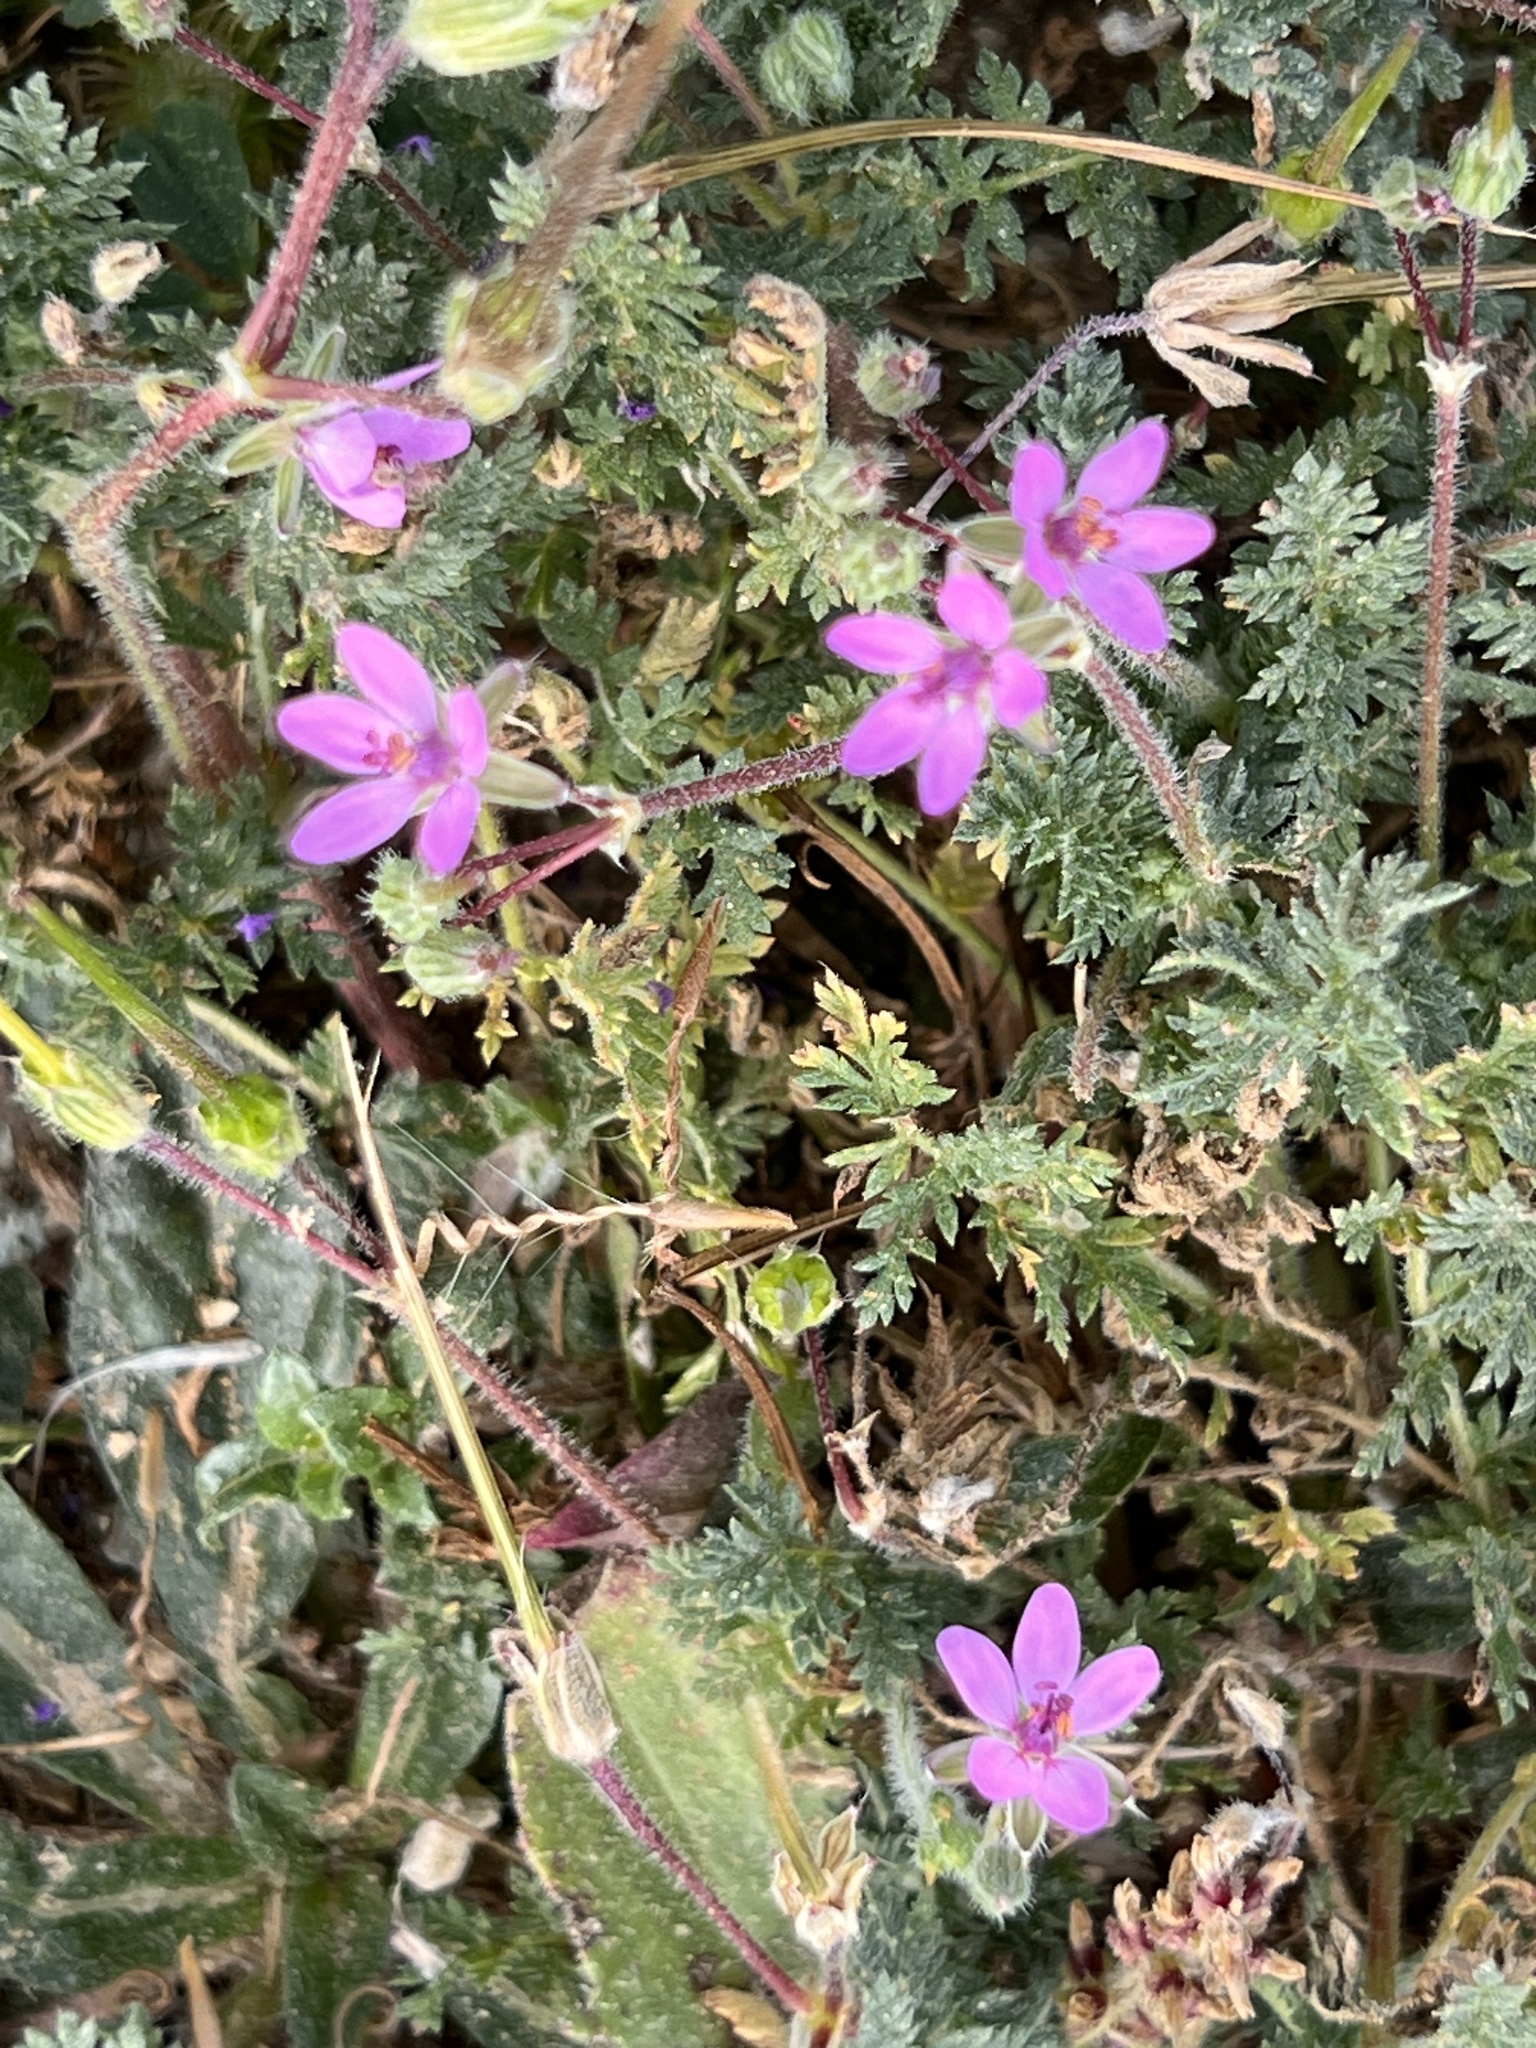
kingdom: Plantae
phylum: Tracheophyta
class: Magnoliopsida
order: Geraniales
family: Geraniaceae
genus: Erodium
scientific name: Erodium cicutarium
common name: Common stork's-bill
